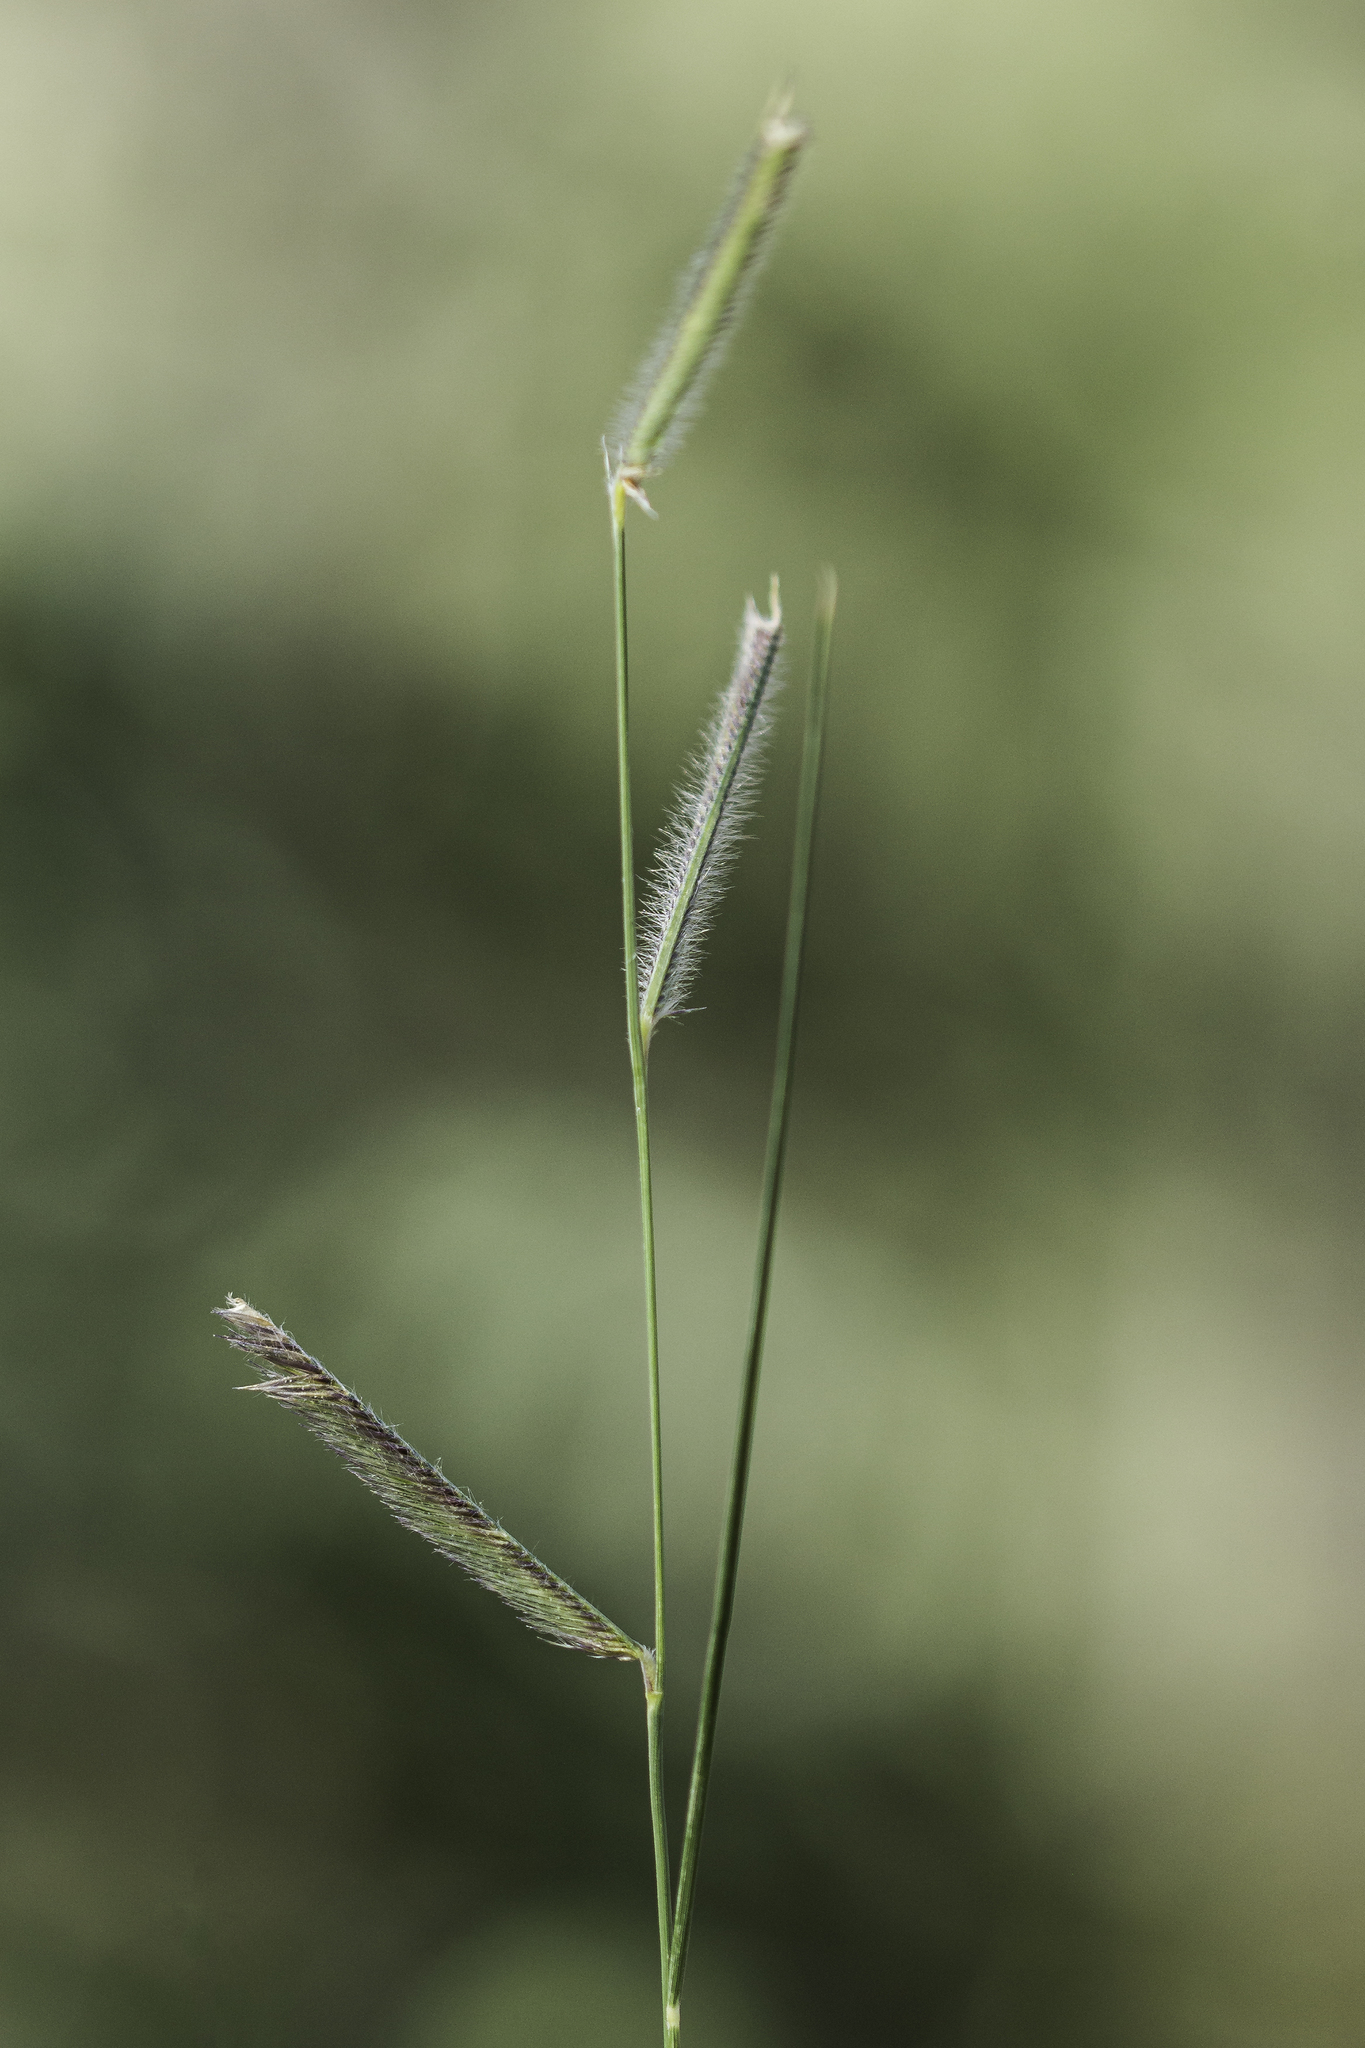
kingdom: Plantae
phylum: Tracheophyta
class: Liliopsida
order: Poales
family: Poaceae
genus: Bouteloua
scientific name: Bouteloua gracilis
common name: Blue grama
